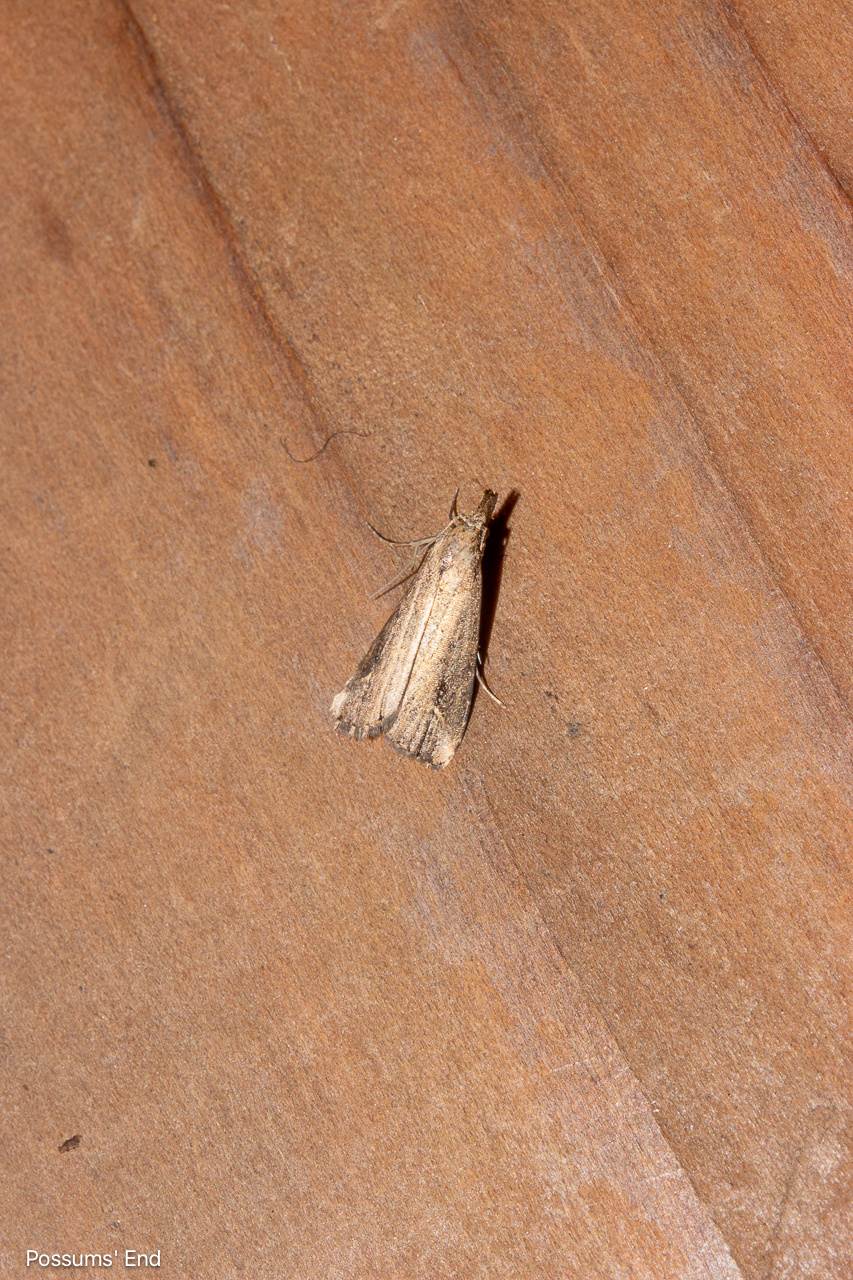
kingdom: Animalia
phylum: Arthropoda
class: Insecta
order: Lepidoptera
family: Erebidae
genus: Schrankia
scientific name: Schrankia costaestrigalis
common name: Pinion-streaked snout
